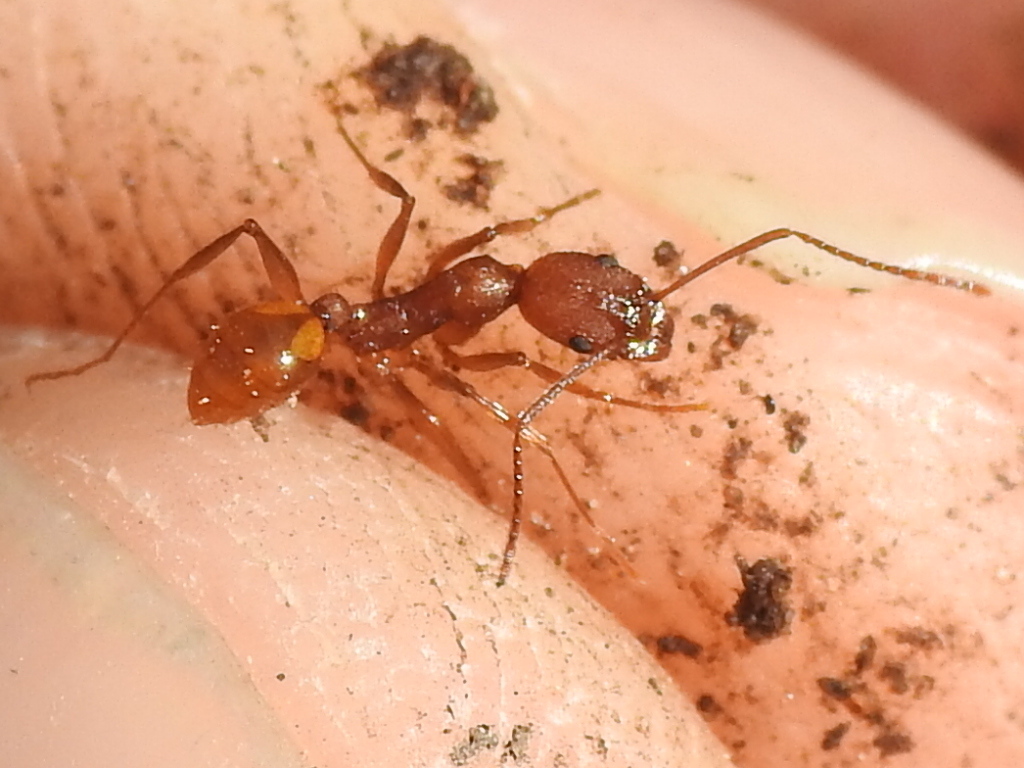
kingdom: Animalia
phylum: Arthropoda
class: Insecta
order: Hymenoptera
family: Formicidae
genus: Aphaenogaster
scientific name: Aphaenogaster texana
